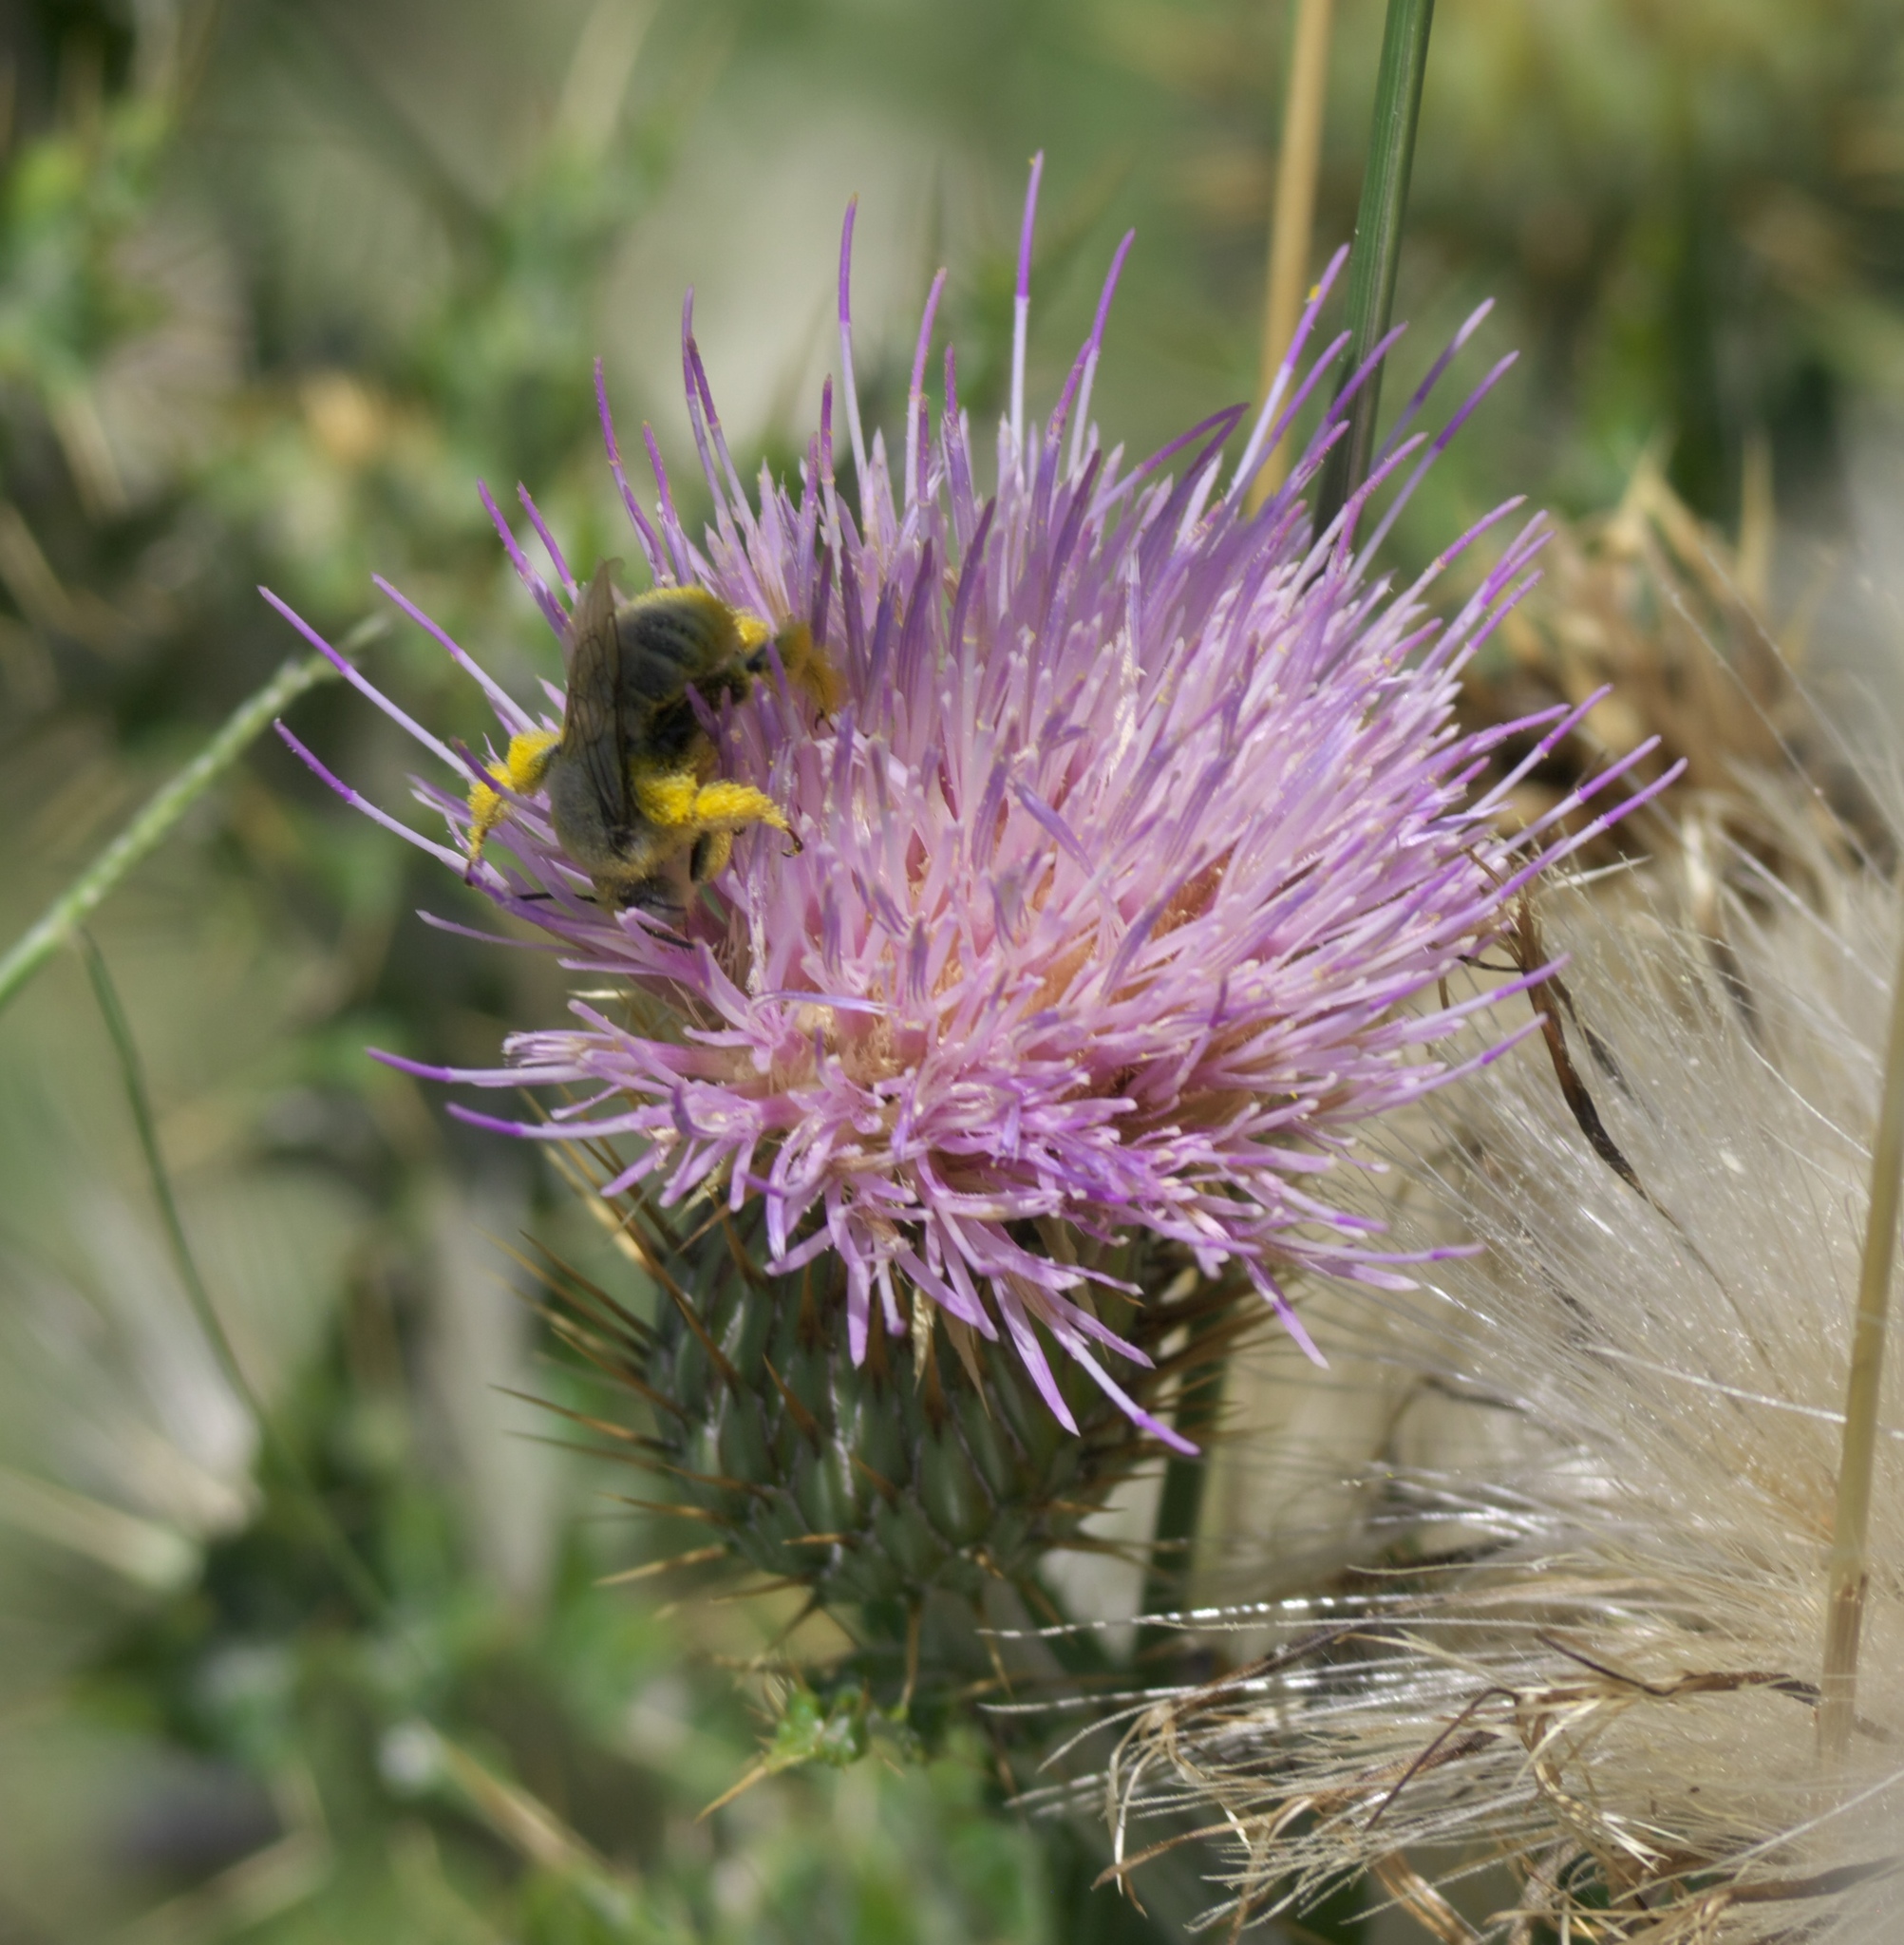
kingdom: Plantae
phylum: Tracheophyta
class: Magnoliopsida
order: Asterales
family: Asteraceae
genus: Cirsium
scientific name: Cirsium ochrocentrum
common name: Yellow-spine thistle
